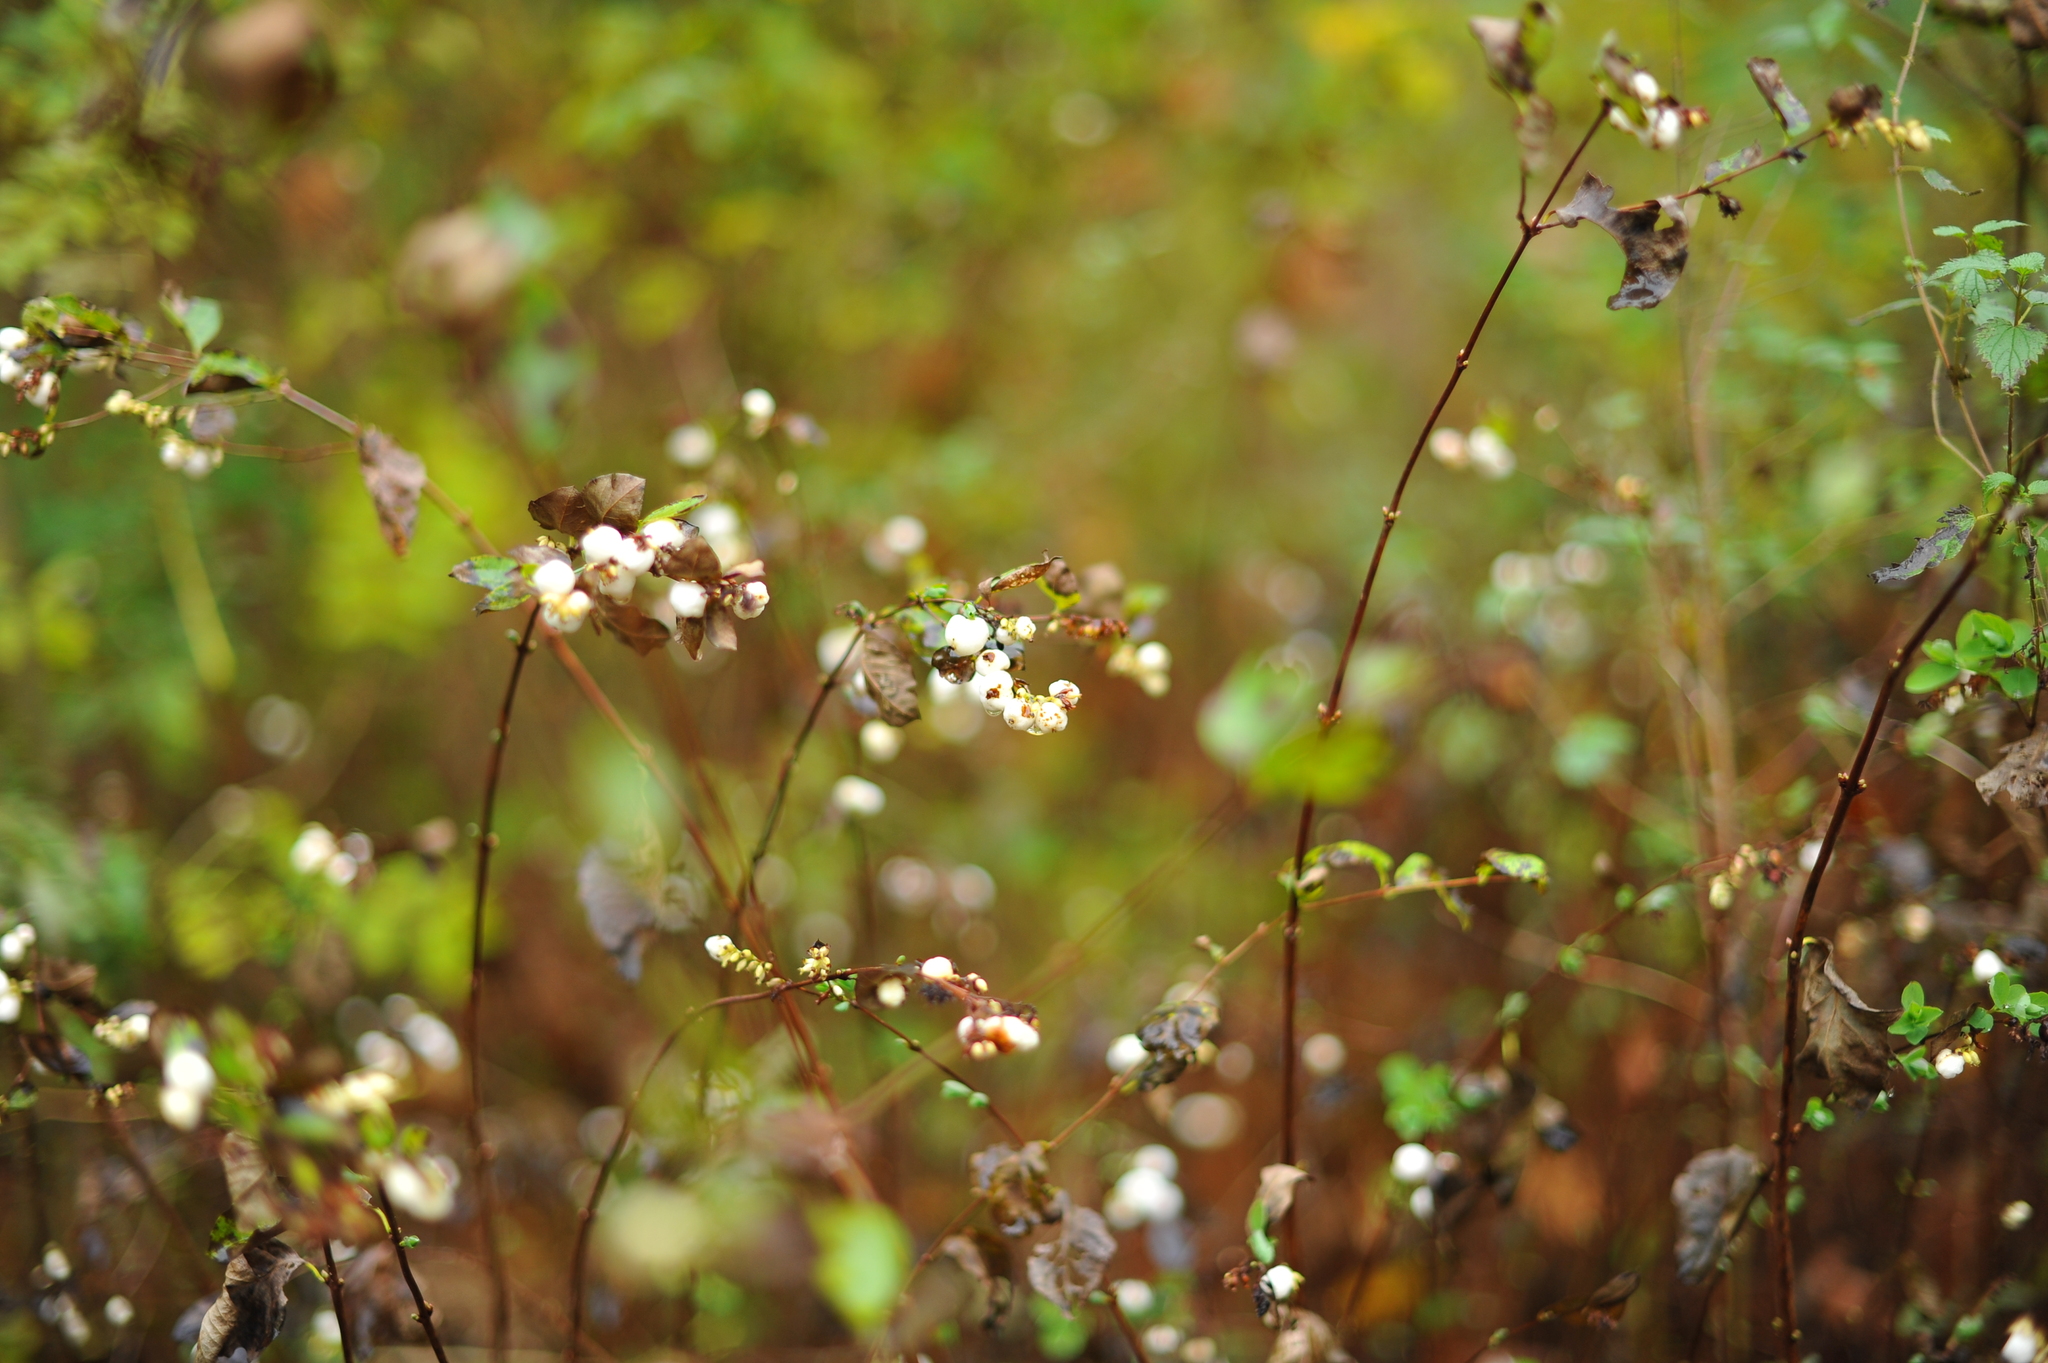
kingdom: Plantae
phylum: Tracheophyta
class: Magnoliopsida
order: Dipsacales
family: Caprifoliaceae
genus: Symphoricarpos
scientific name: Symphoricarpos albus
